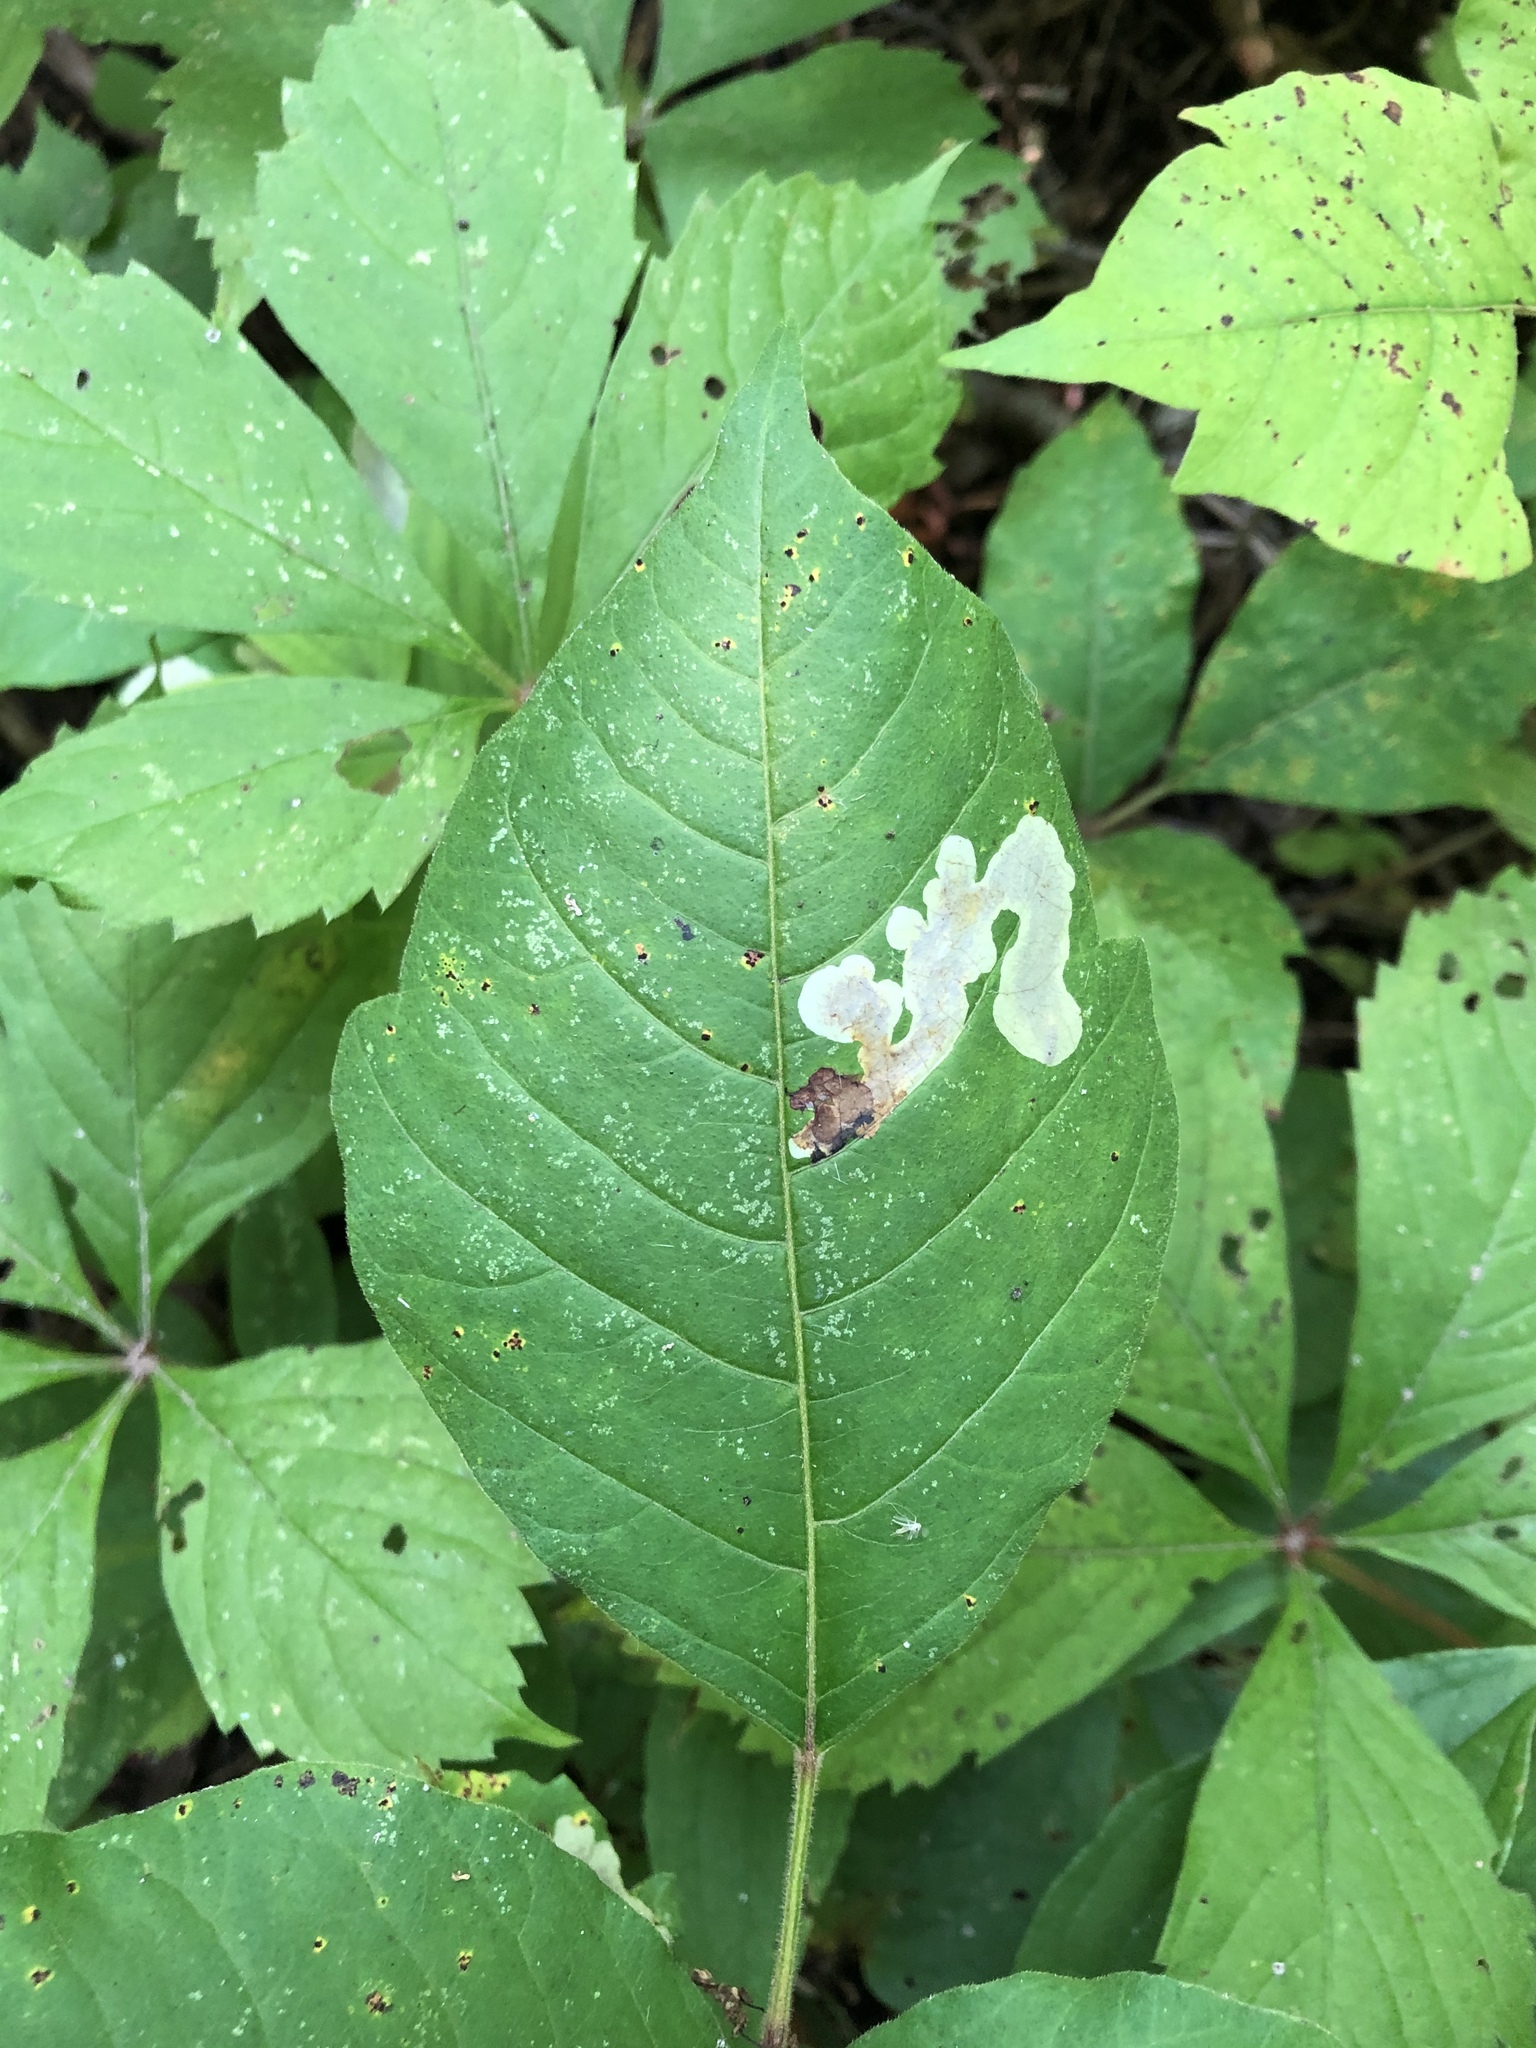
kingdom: Animalia
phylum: Arthropoda
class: Insecta
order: Lepidoptera
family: Gracillariidae
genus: Cameraria
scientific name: Cameraria guttifinitella
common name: Poison ivy leaf-miner moth
